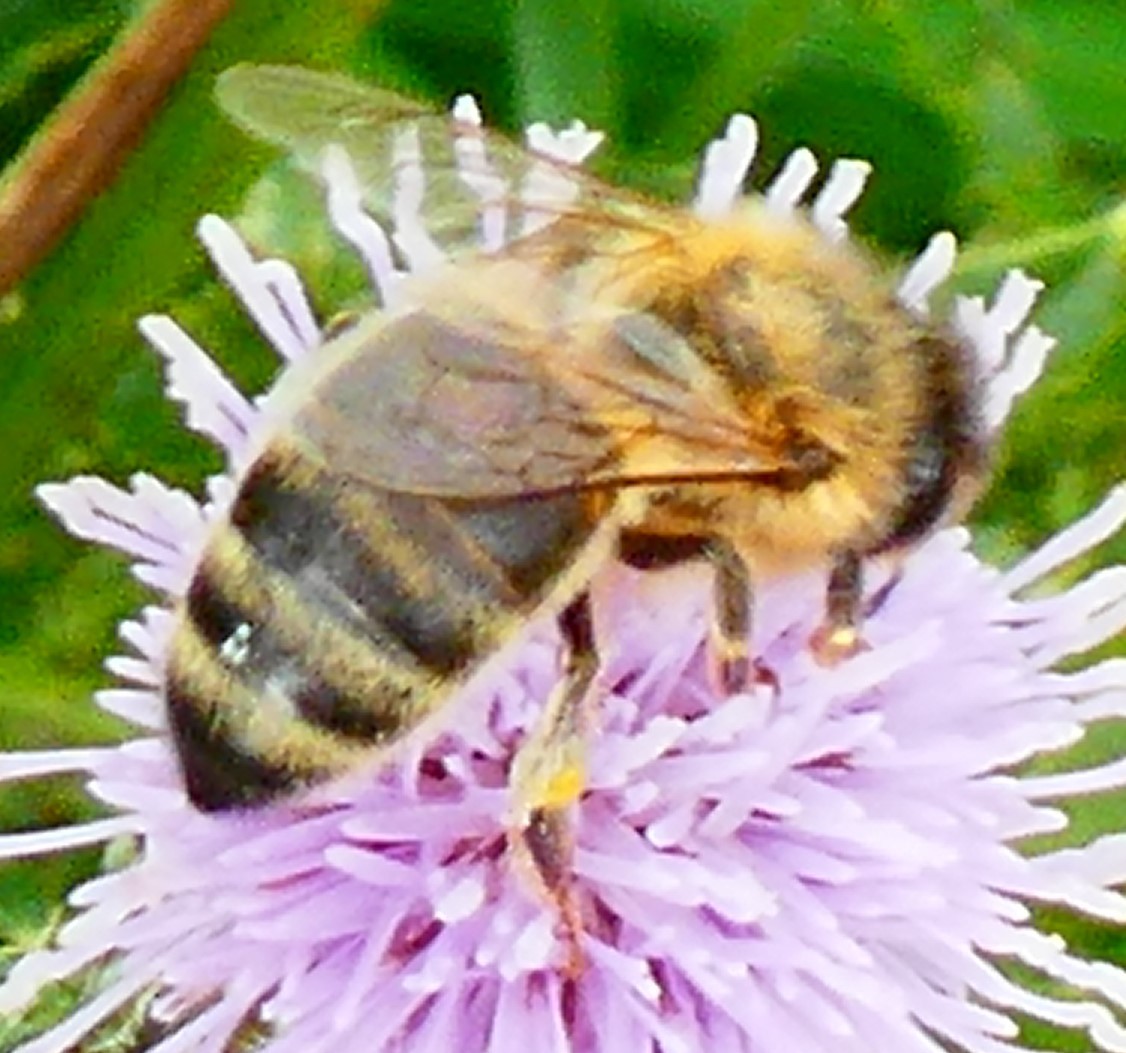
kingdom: Animalia
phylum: Arthropoda
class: Insecta
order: Hymenoptera
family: Apidae
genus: Apis
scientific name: Apis mellifera
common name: Honey bee
